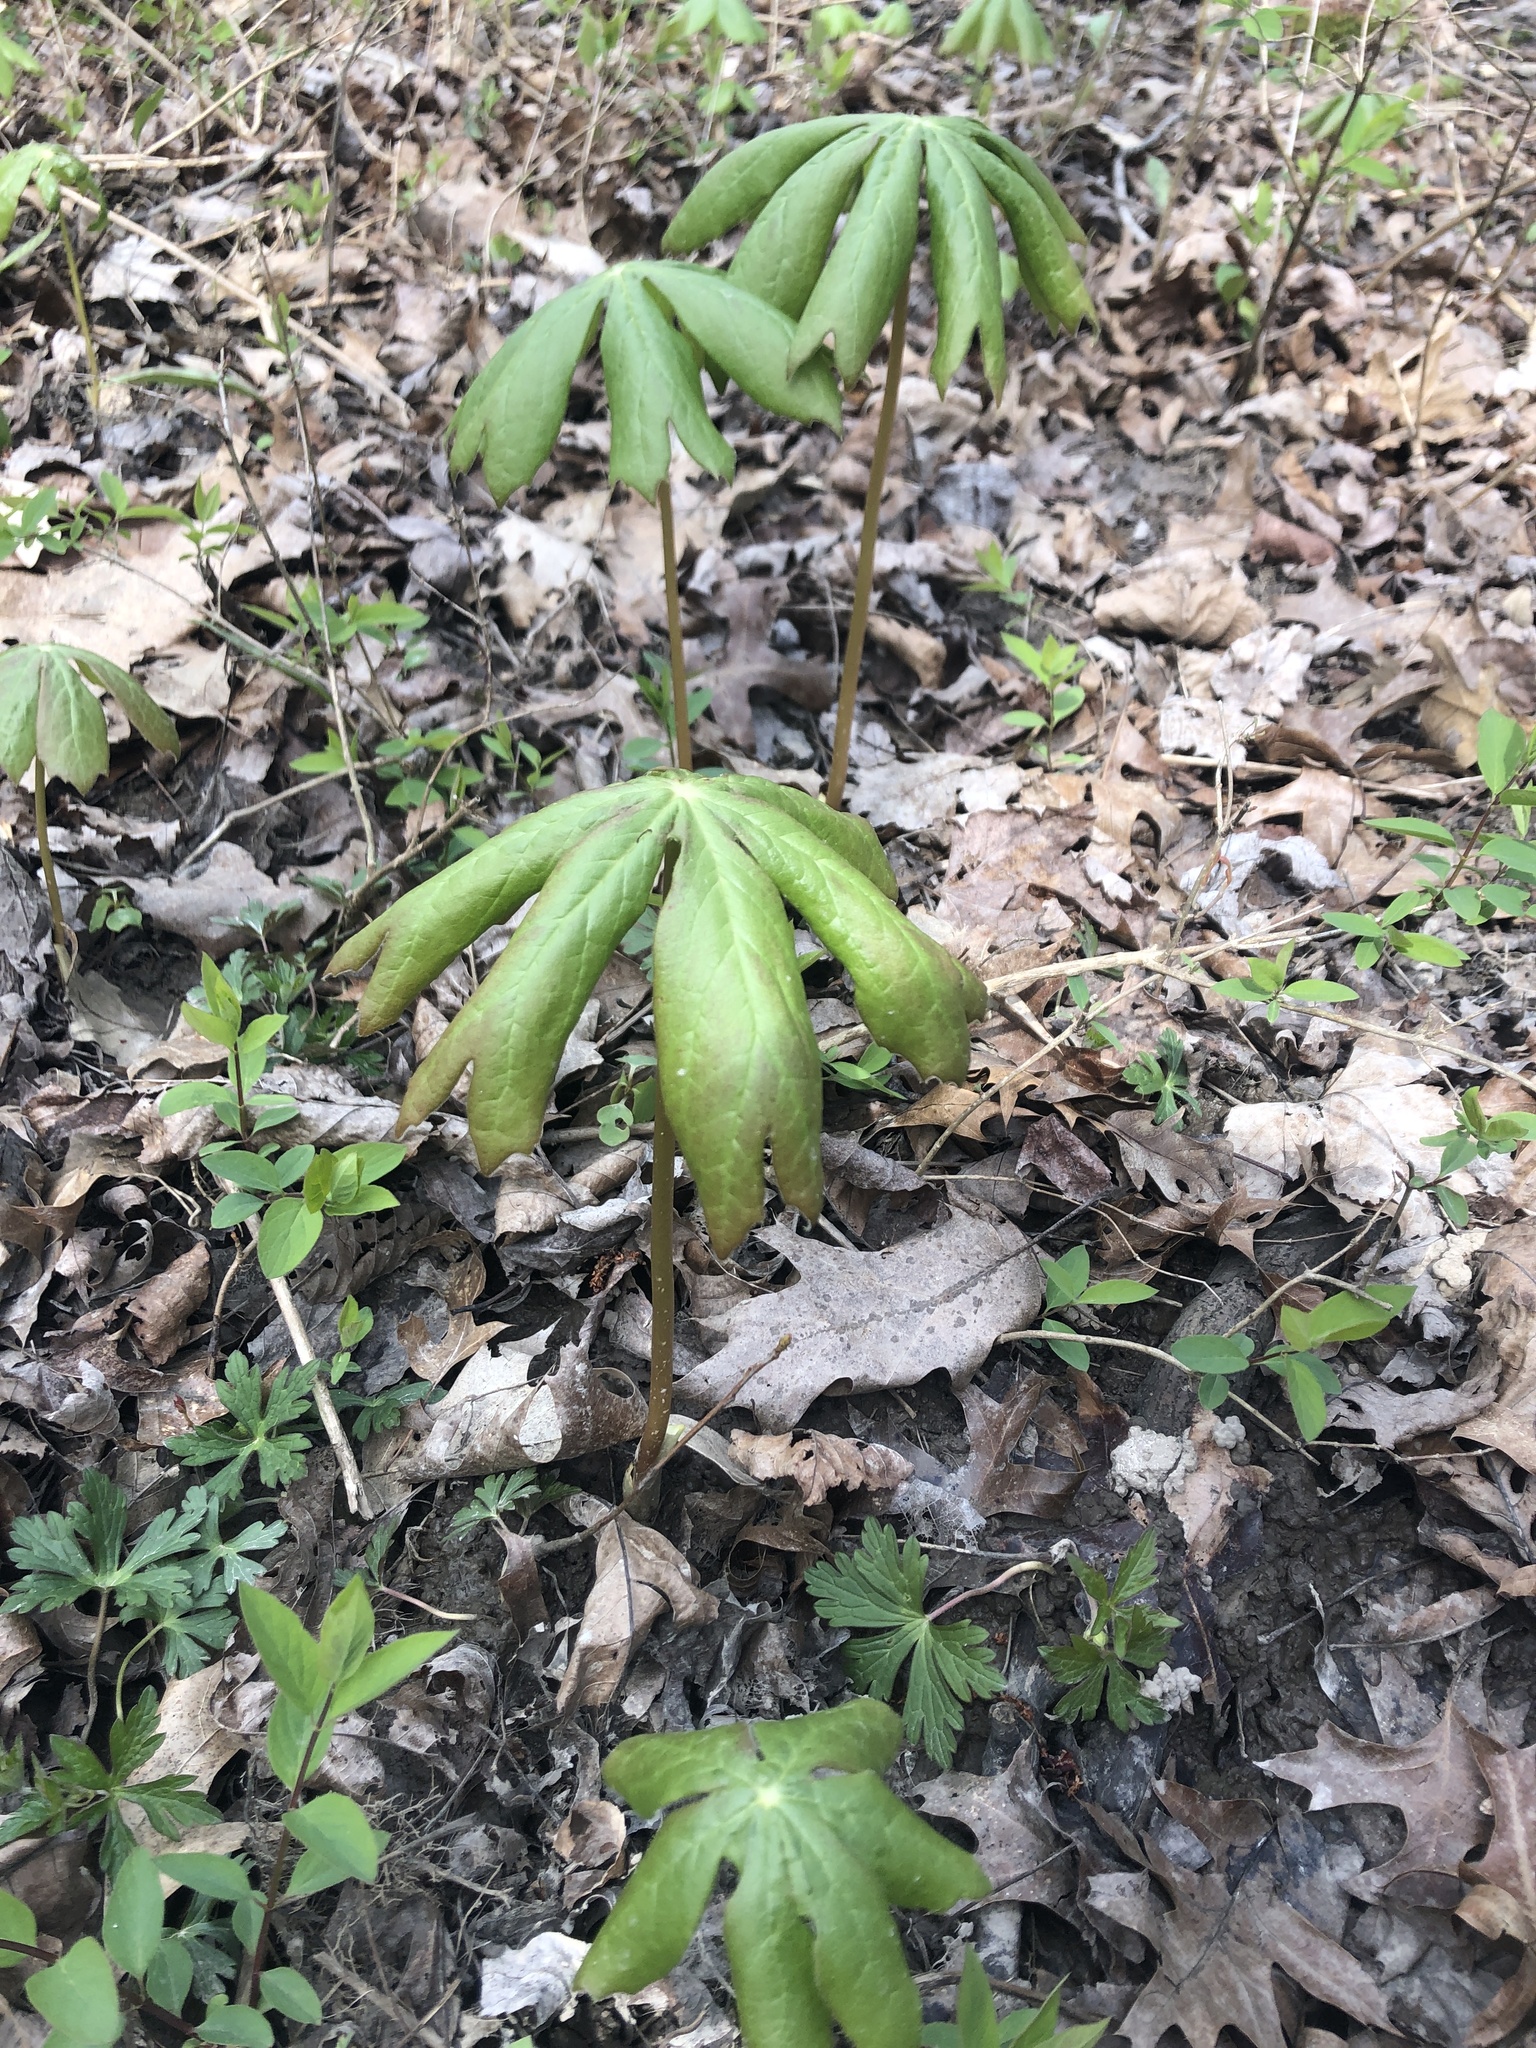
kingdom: Plantae
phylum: Tracheophyta
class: Magnoliopsida
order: Ranunculales
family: Berberidaceae
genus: Podophyllum
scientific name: Podophyllum peltatum
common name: Wild mandrake
